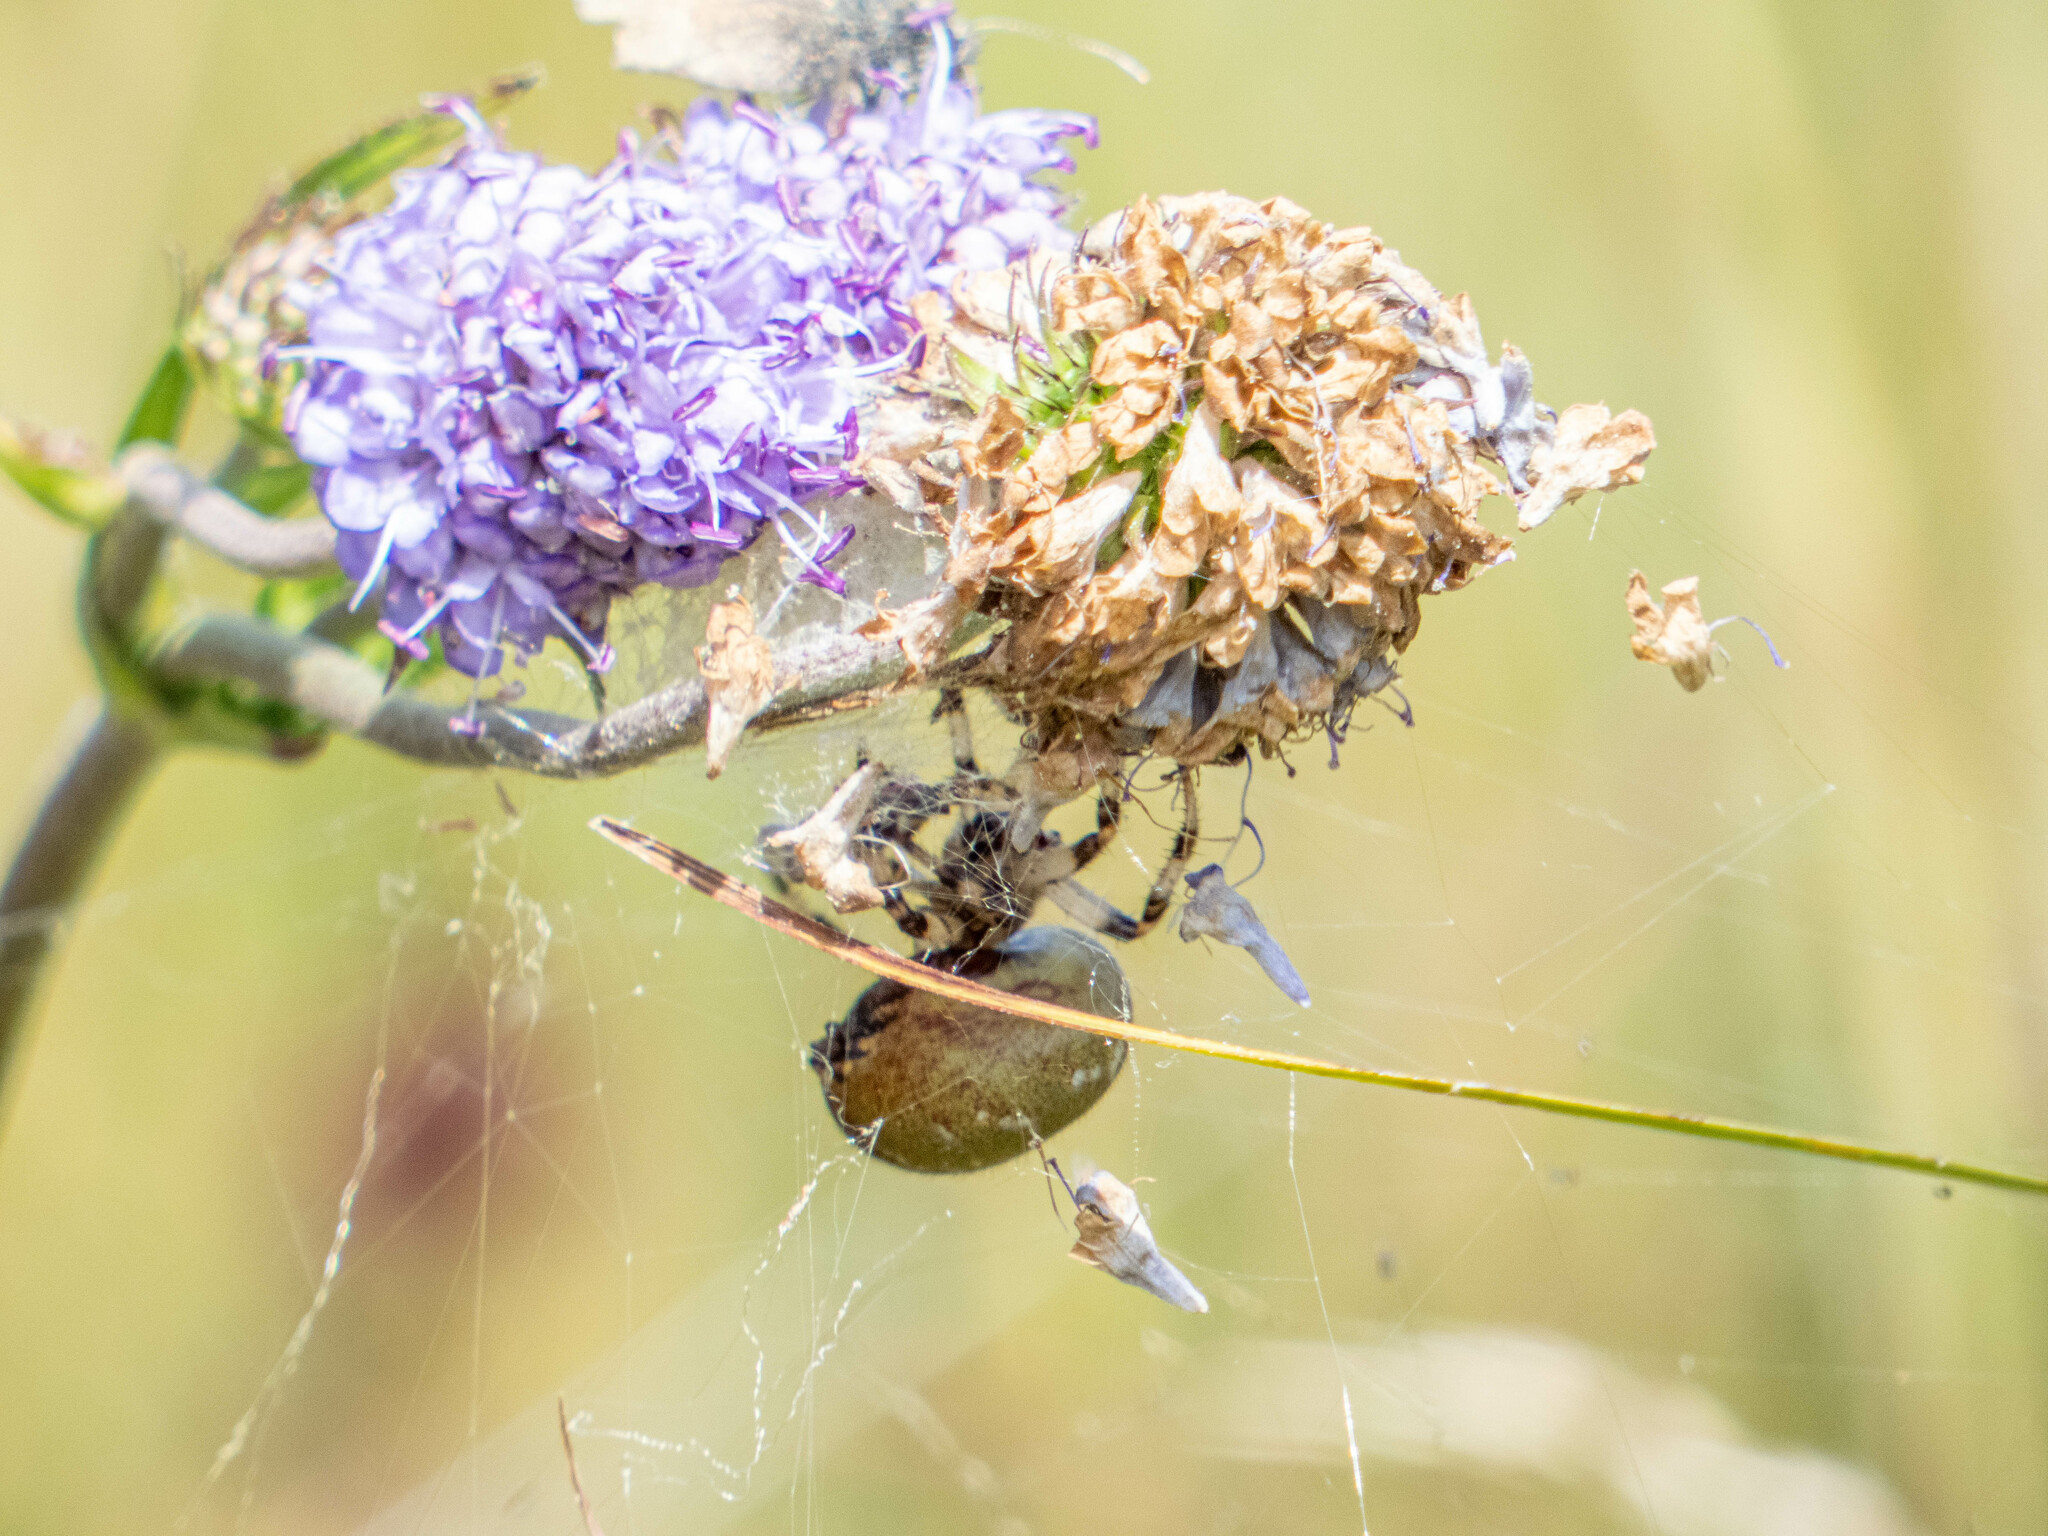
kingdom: Animalia
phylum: Arthropoda
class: Arachnida
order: Araneae
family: Araneidae
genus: Araneus
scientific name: Araneus quadratus
